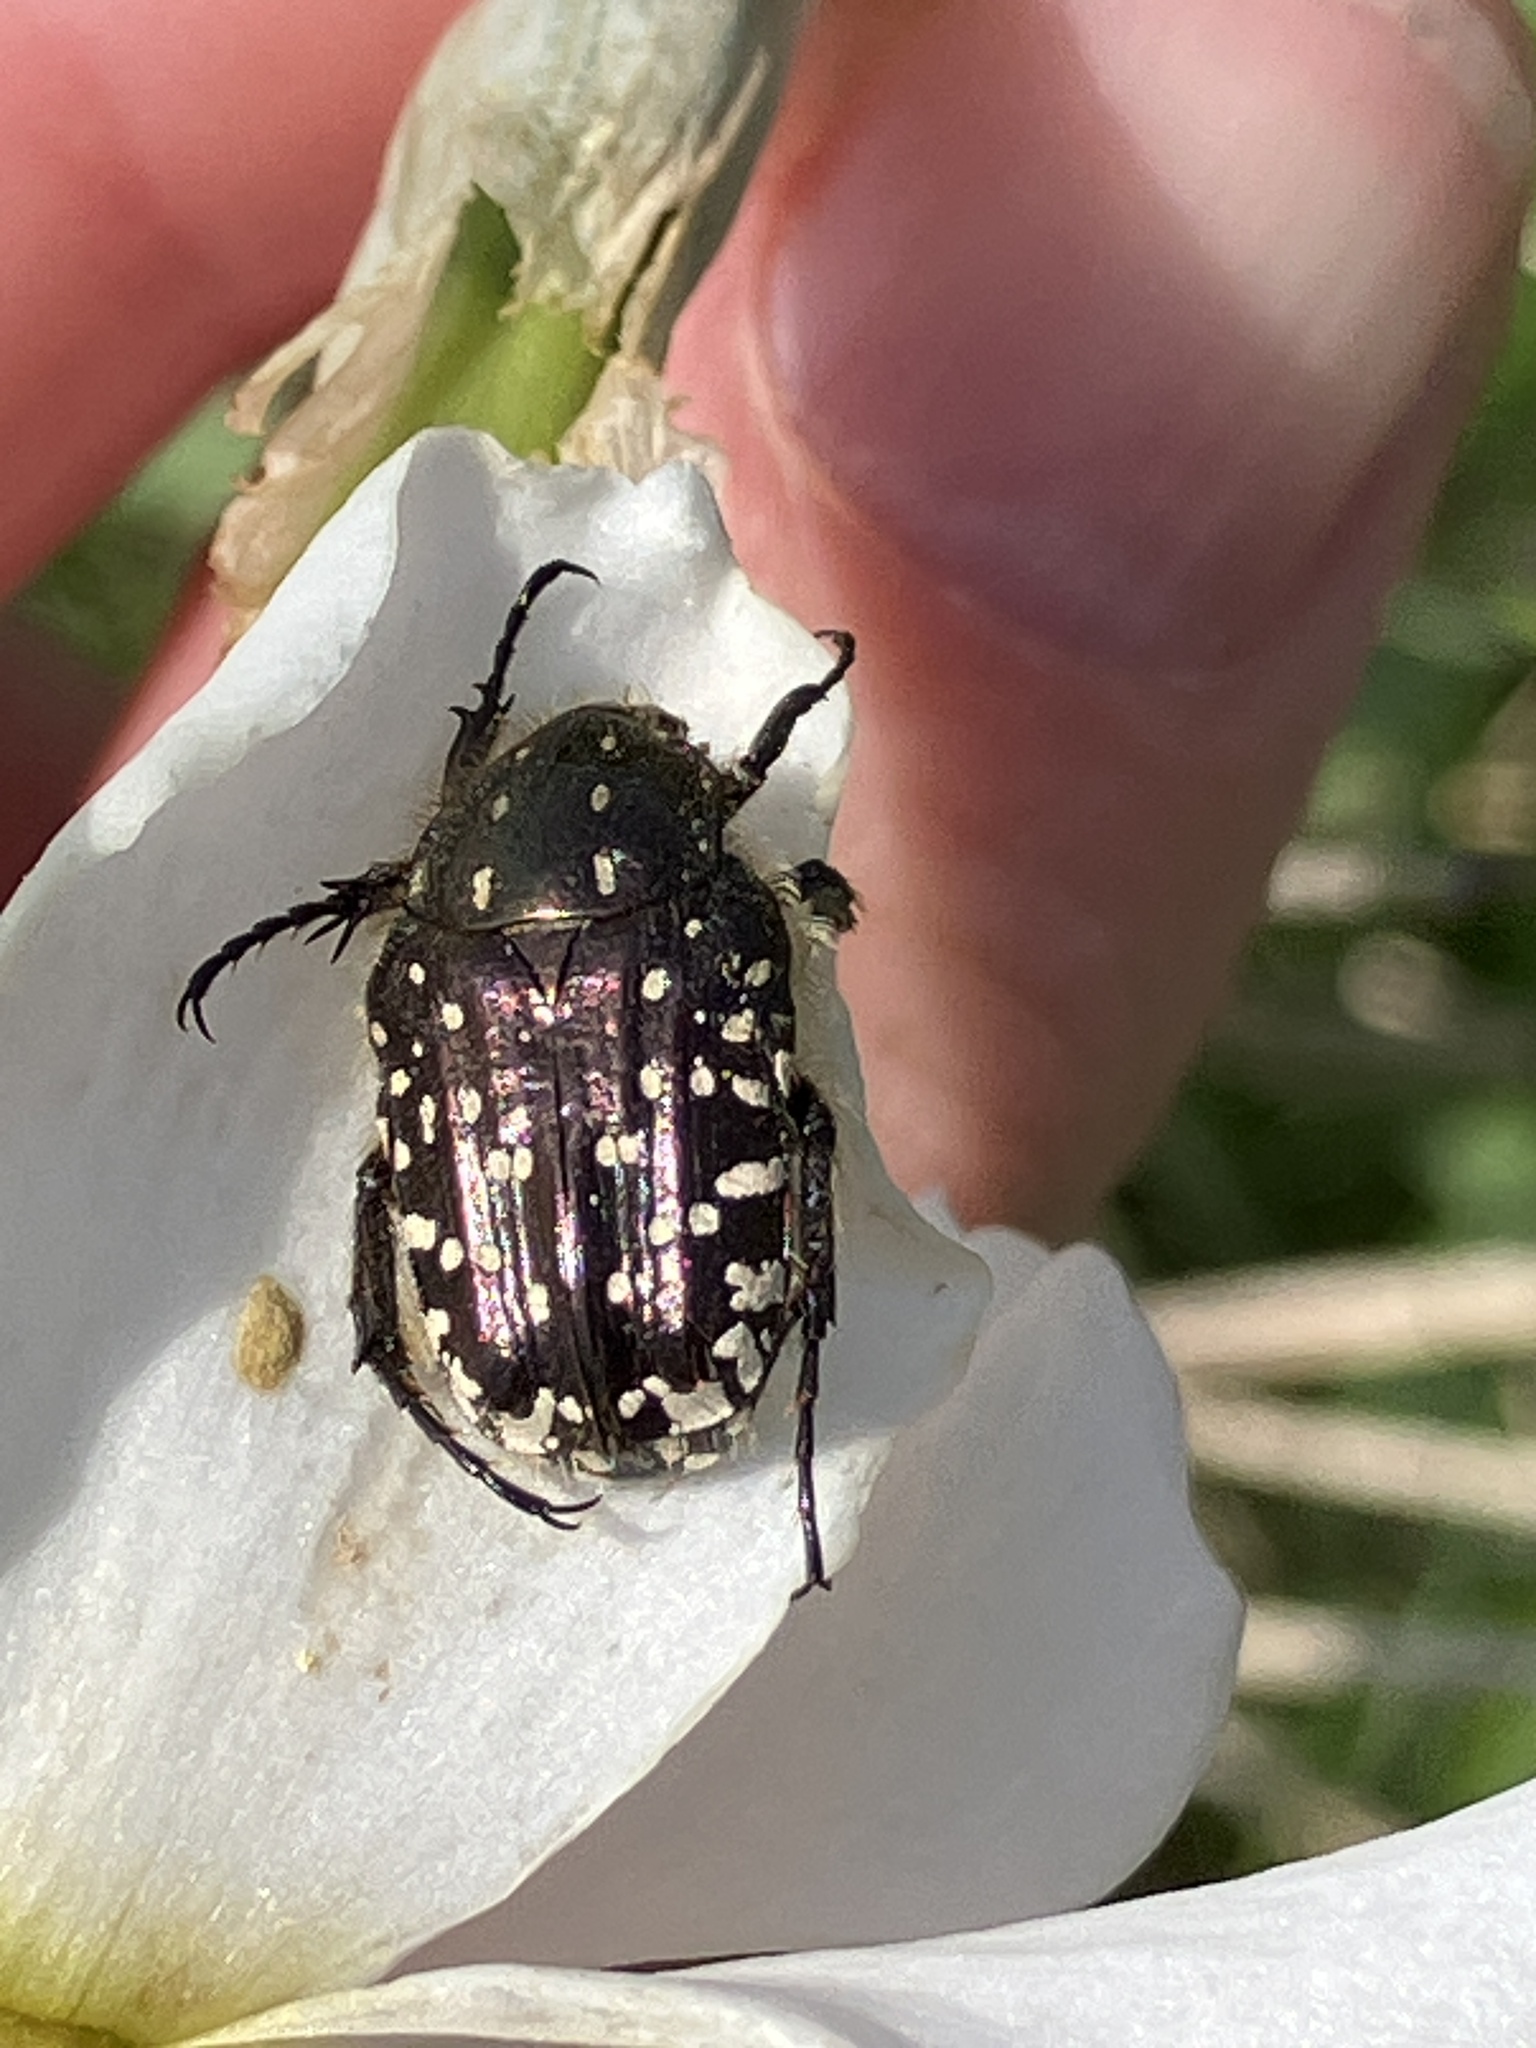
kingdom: Animalia
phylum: Arthropoda
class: Insecta
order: Coleoptera
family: Scarabaeidae
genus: Oxythyrea
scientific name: Oxythyrea funesta
